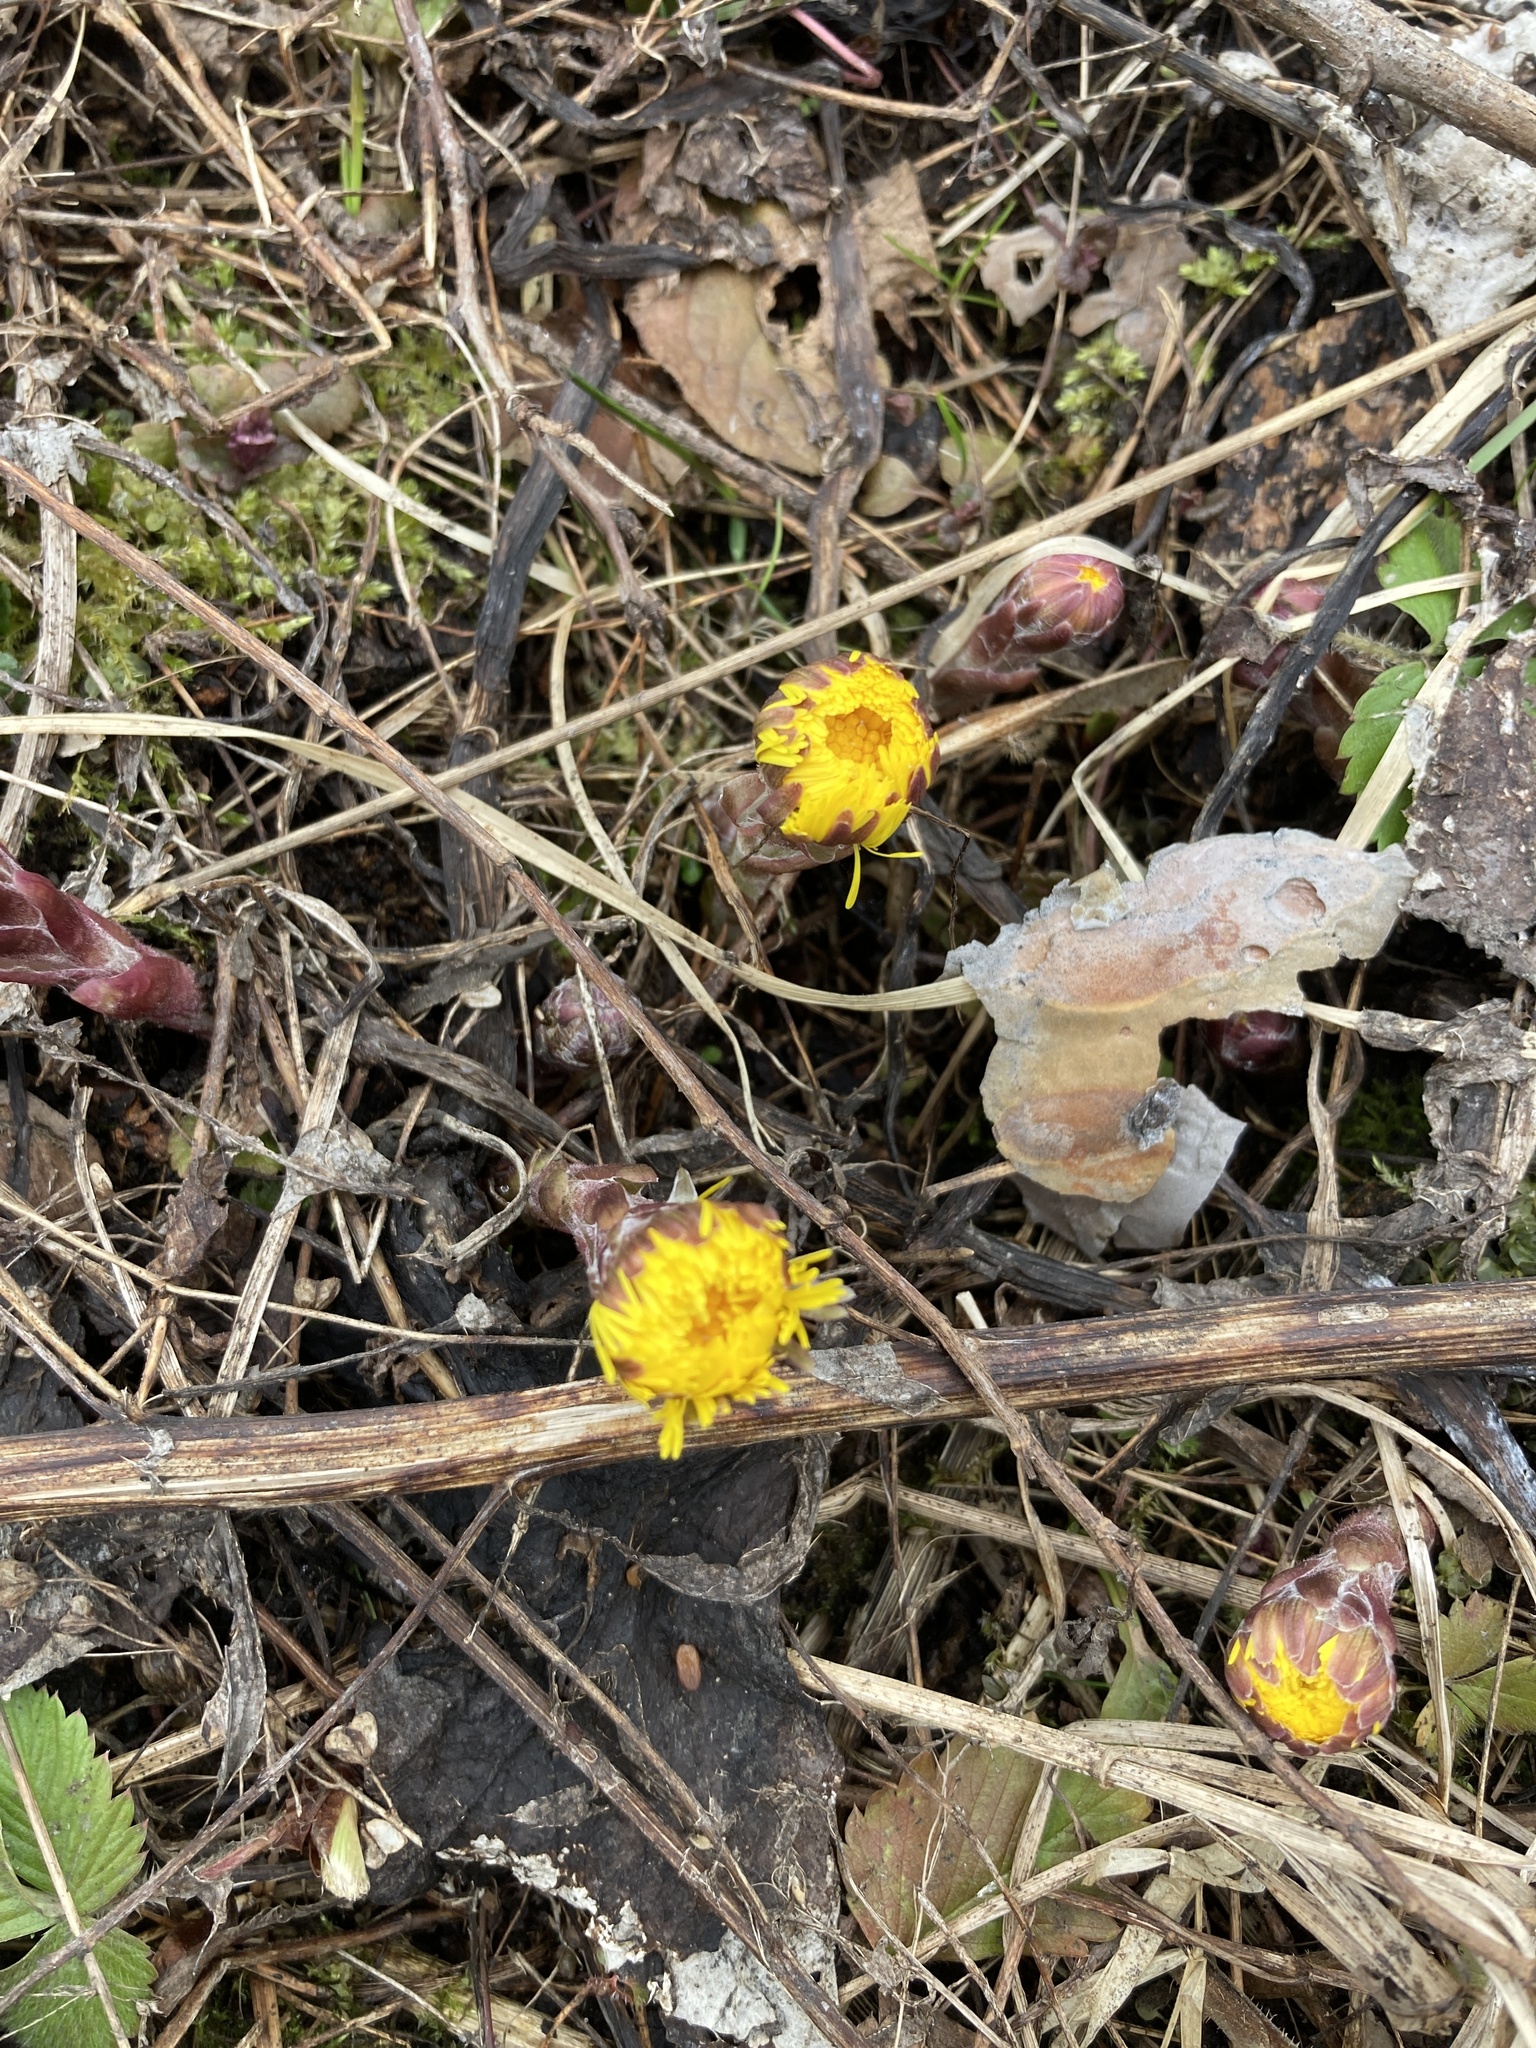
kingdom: Plantae
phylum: Tracheophyta
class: Magnoliopsida
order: Asterales
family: Asteraceae
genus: Tussilago
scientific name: Tussilago farfara
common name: Coltsfoot
